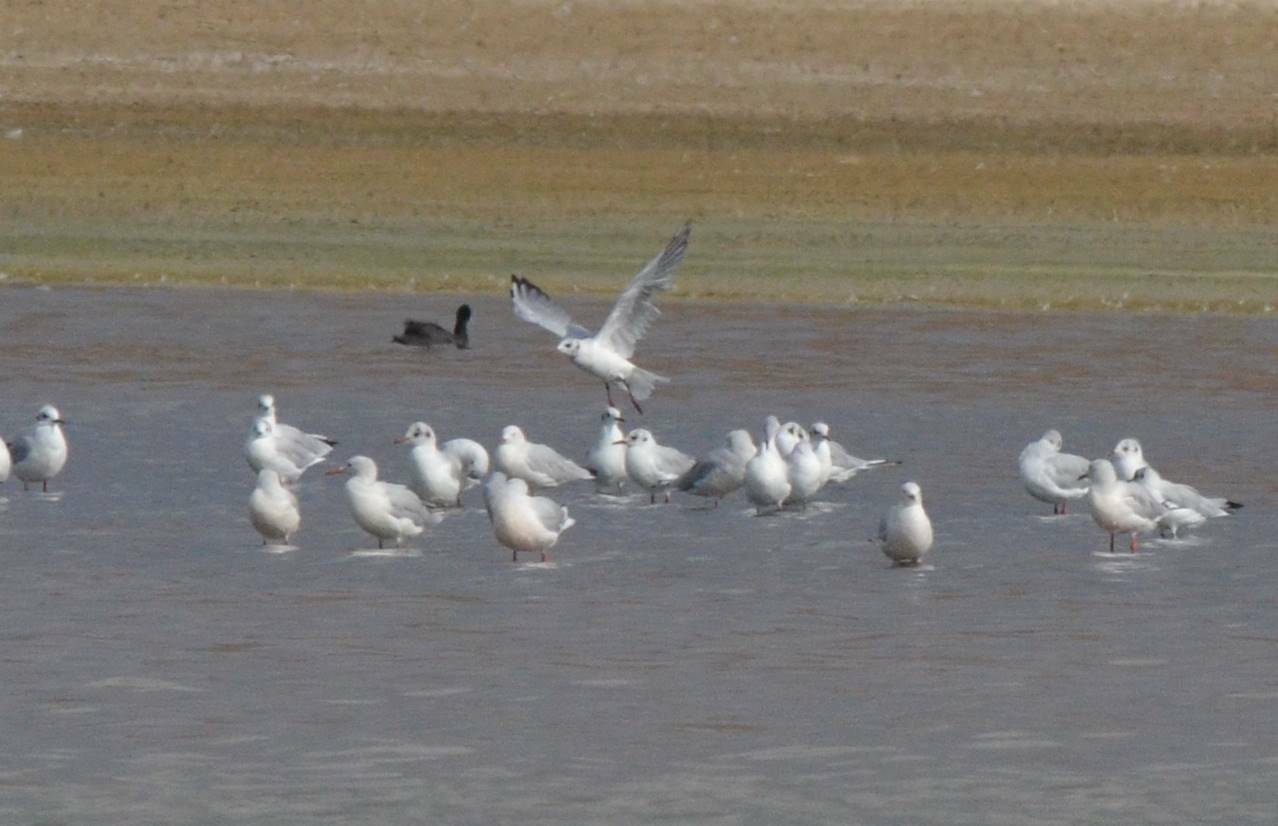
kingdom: Animalia
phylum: Chordata
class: Aves
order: Charadriiformes
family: Laridae
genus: Chroicocephalus
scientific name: Chroicocephalus ridibundus
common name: Black-headed gull
